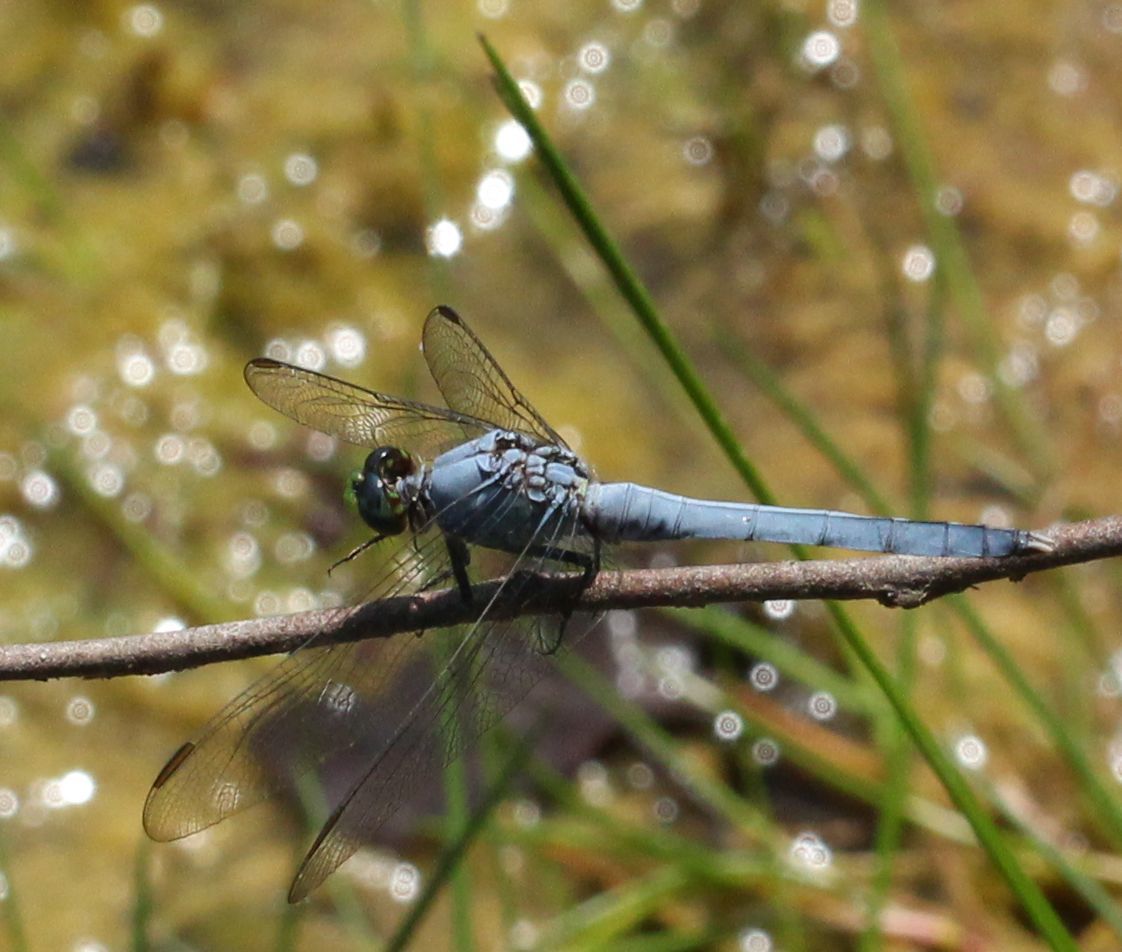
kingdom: Animalia
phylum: Arthropoda
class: Insecta
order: Odonata
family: Libellulidae
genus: Erythemis
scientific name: Erythemis simplicicollis
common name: Eastern pondhawk
